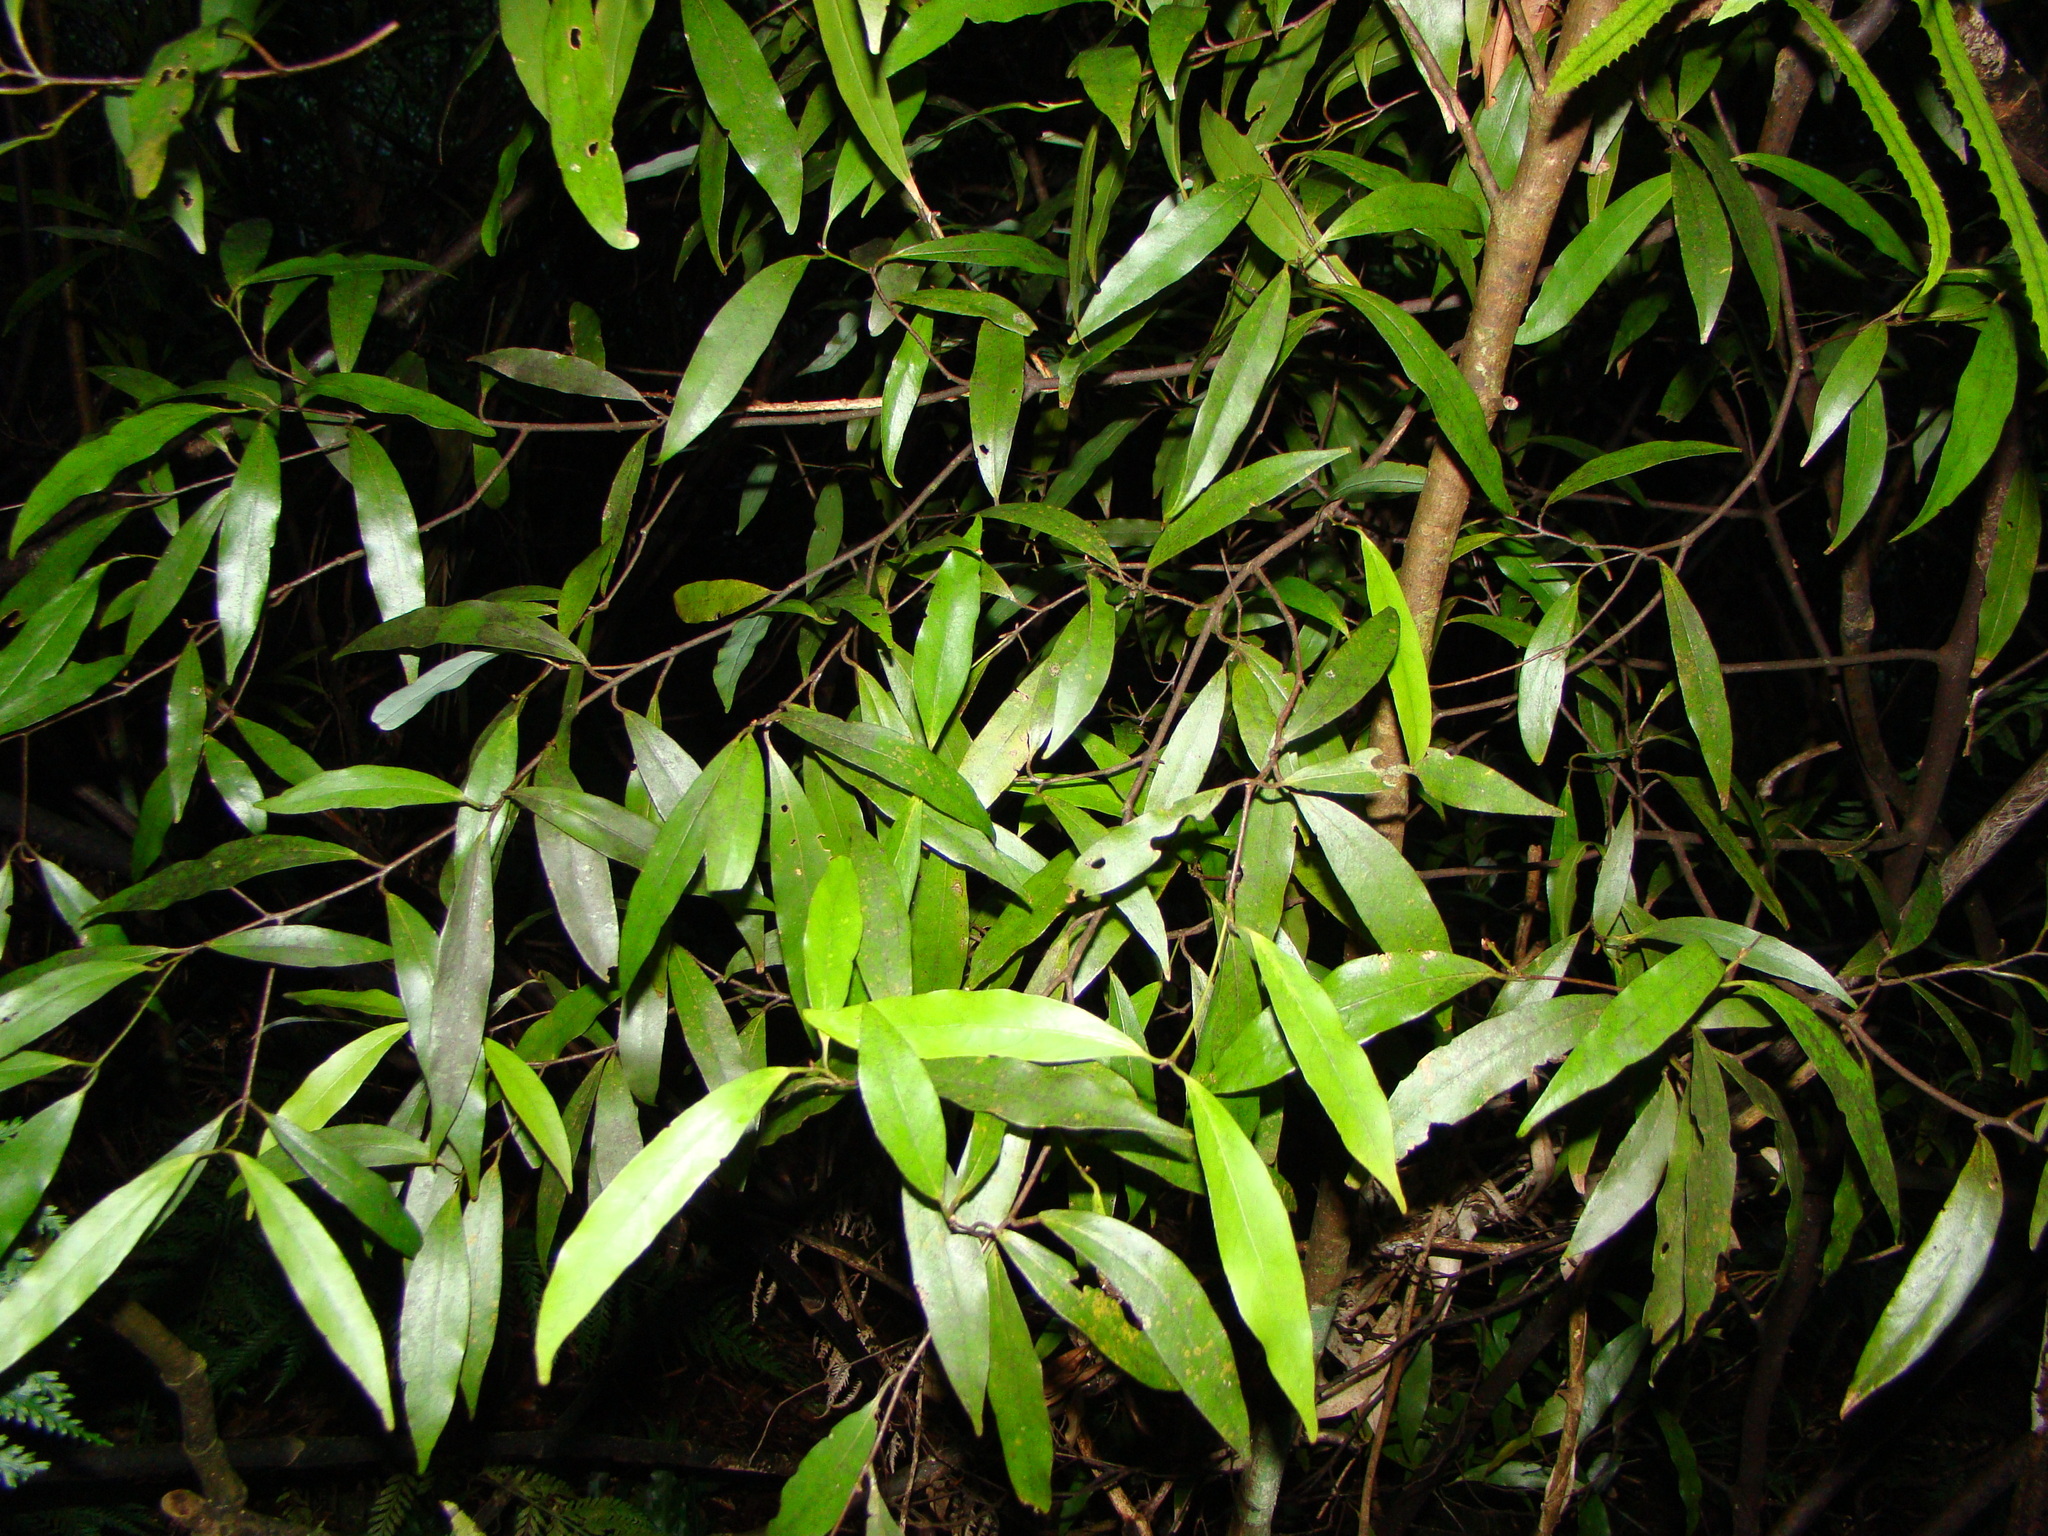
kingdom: Plantae
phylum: Tracheophyta
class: Magnoliopsida
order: Laurales
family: Lauraceae
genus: Beilschmiedia
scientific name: Beilschmiedia tawa
